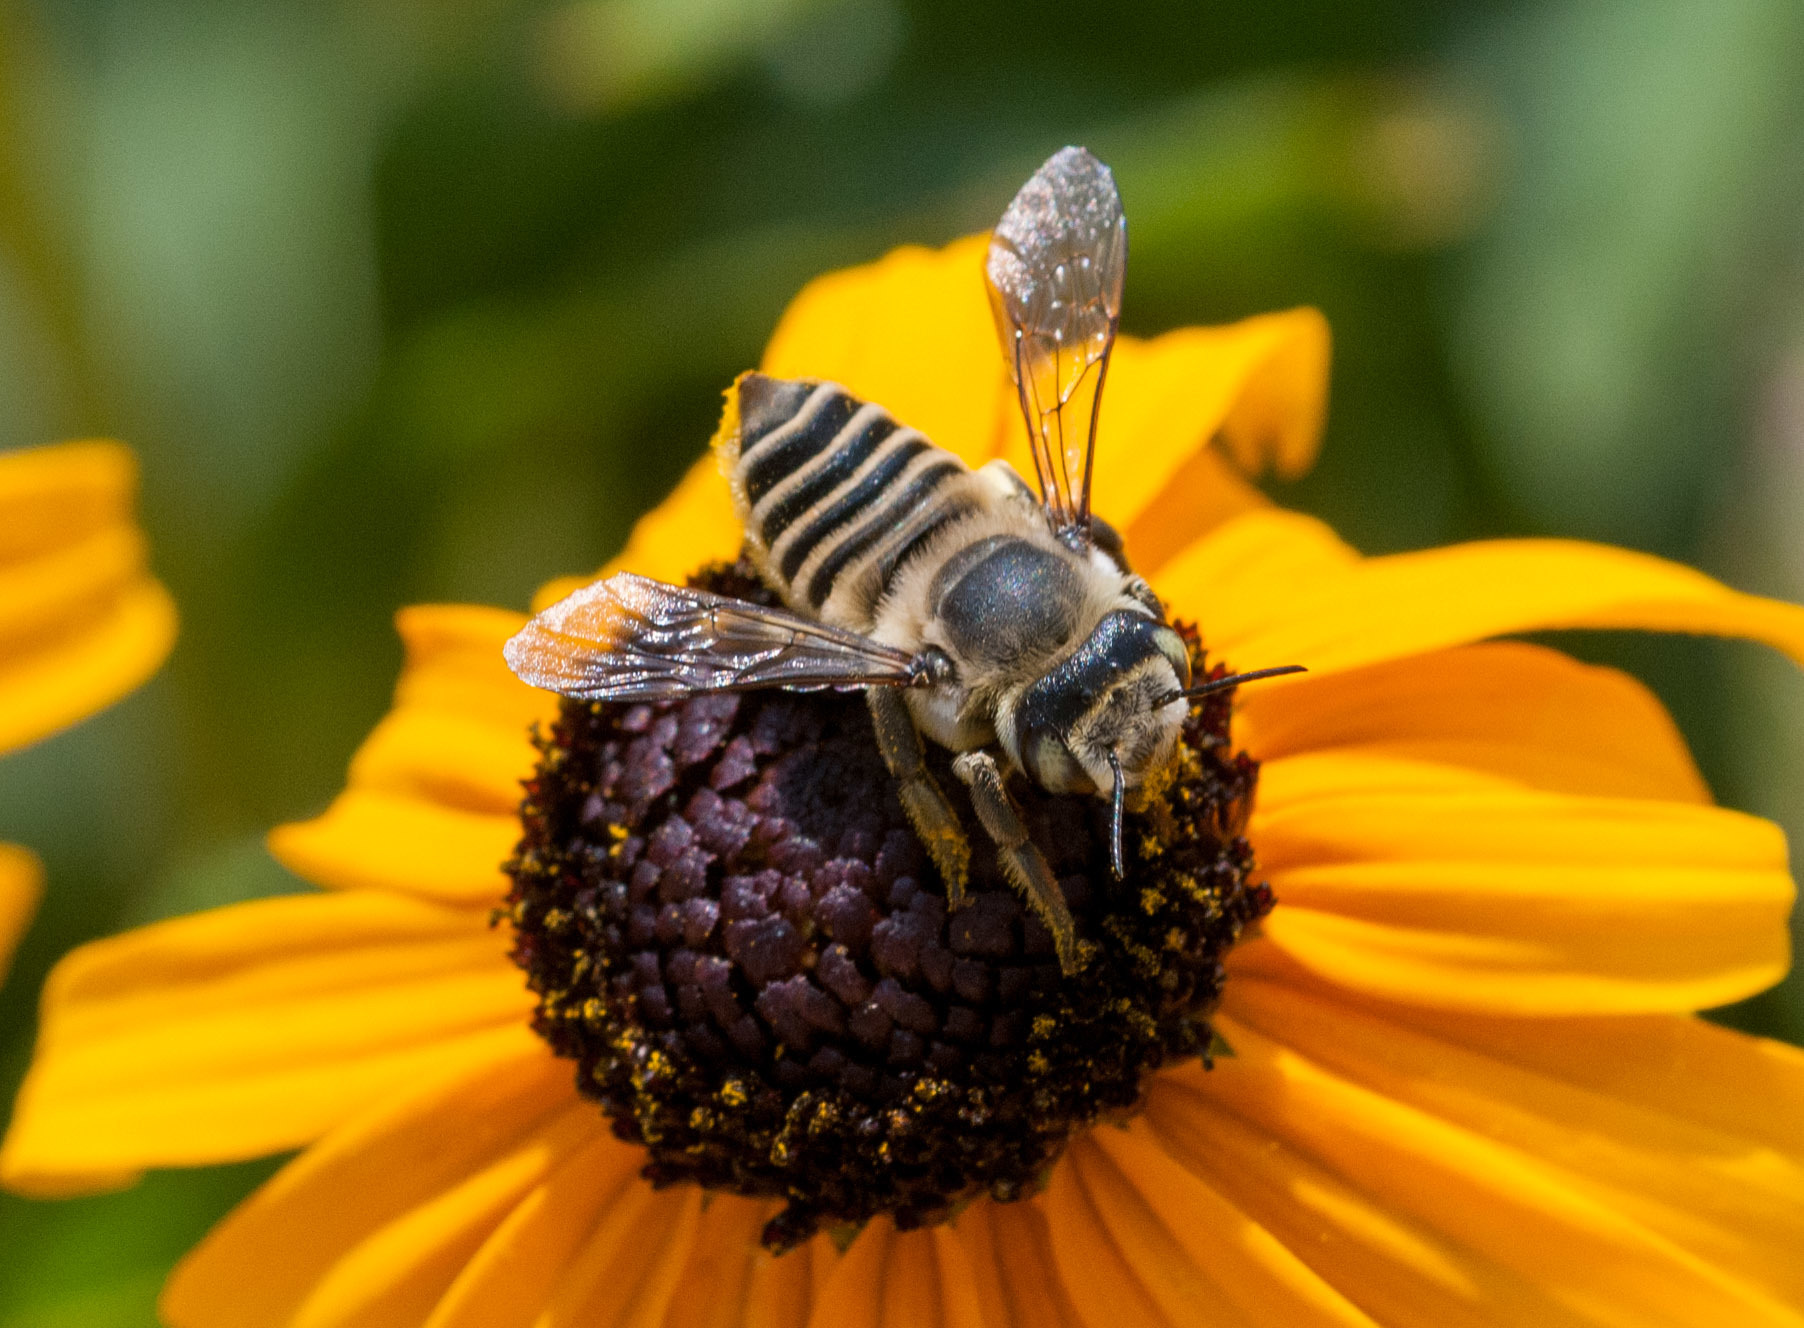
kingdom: Animalia
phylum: Arthropoda
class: Insecta
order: Hymenoptera
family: Megachilidae
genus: Megachile
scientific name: Megachile parallela
